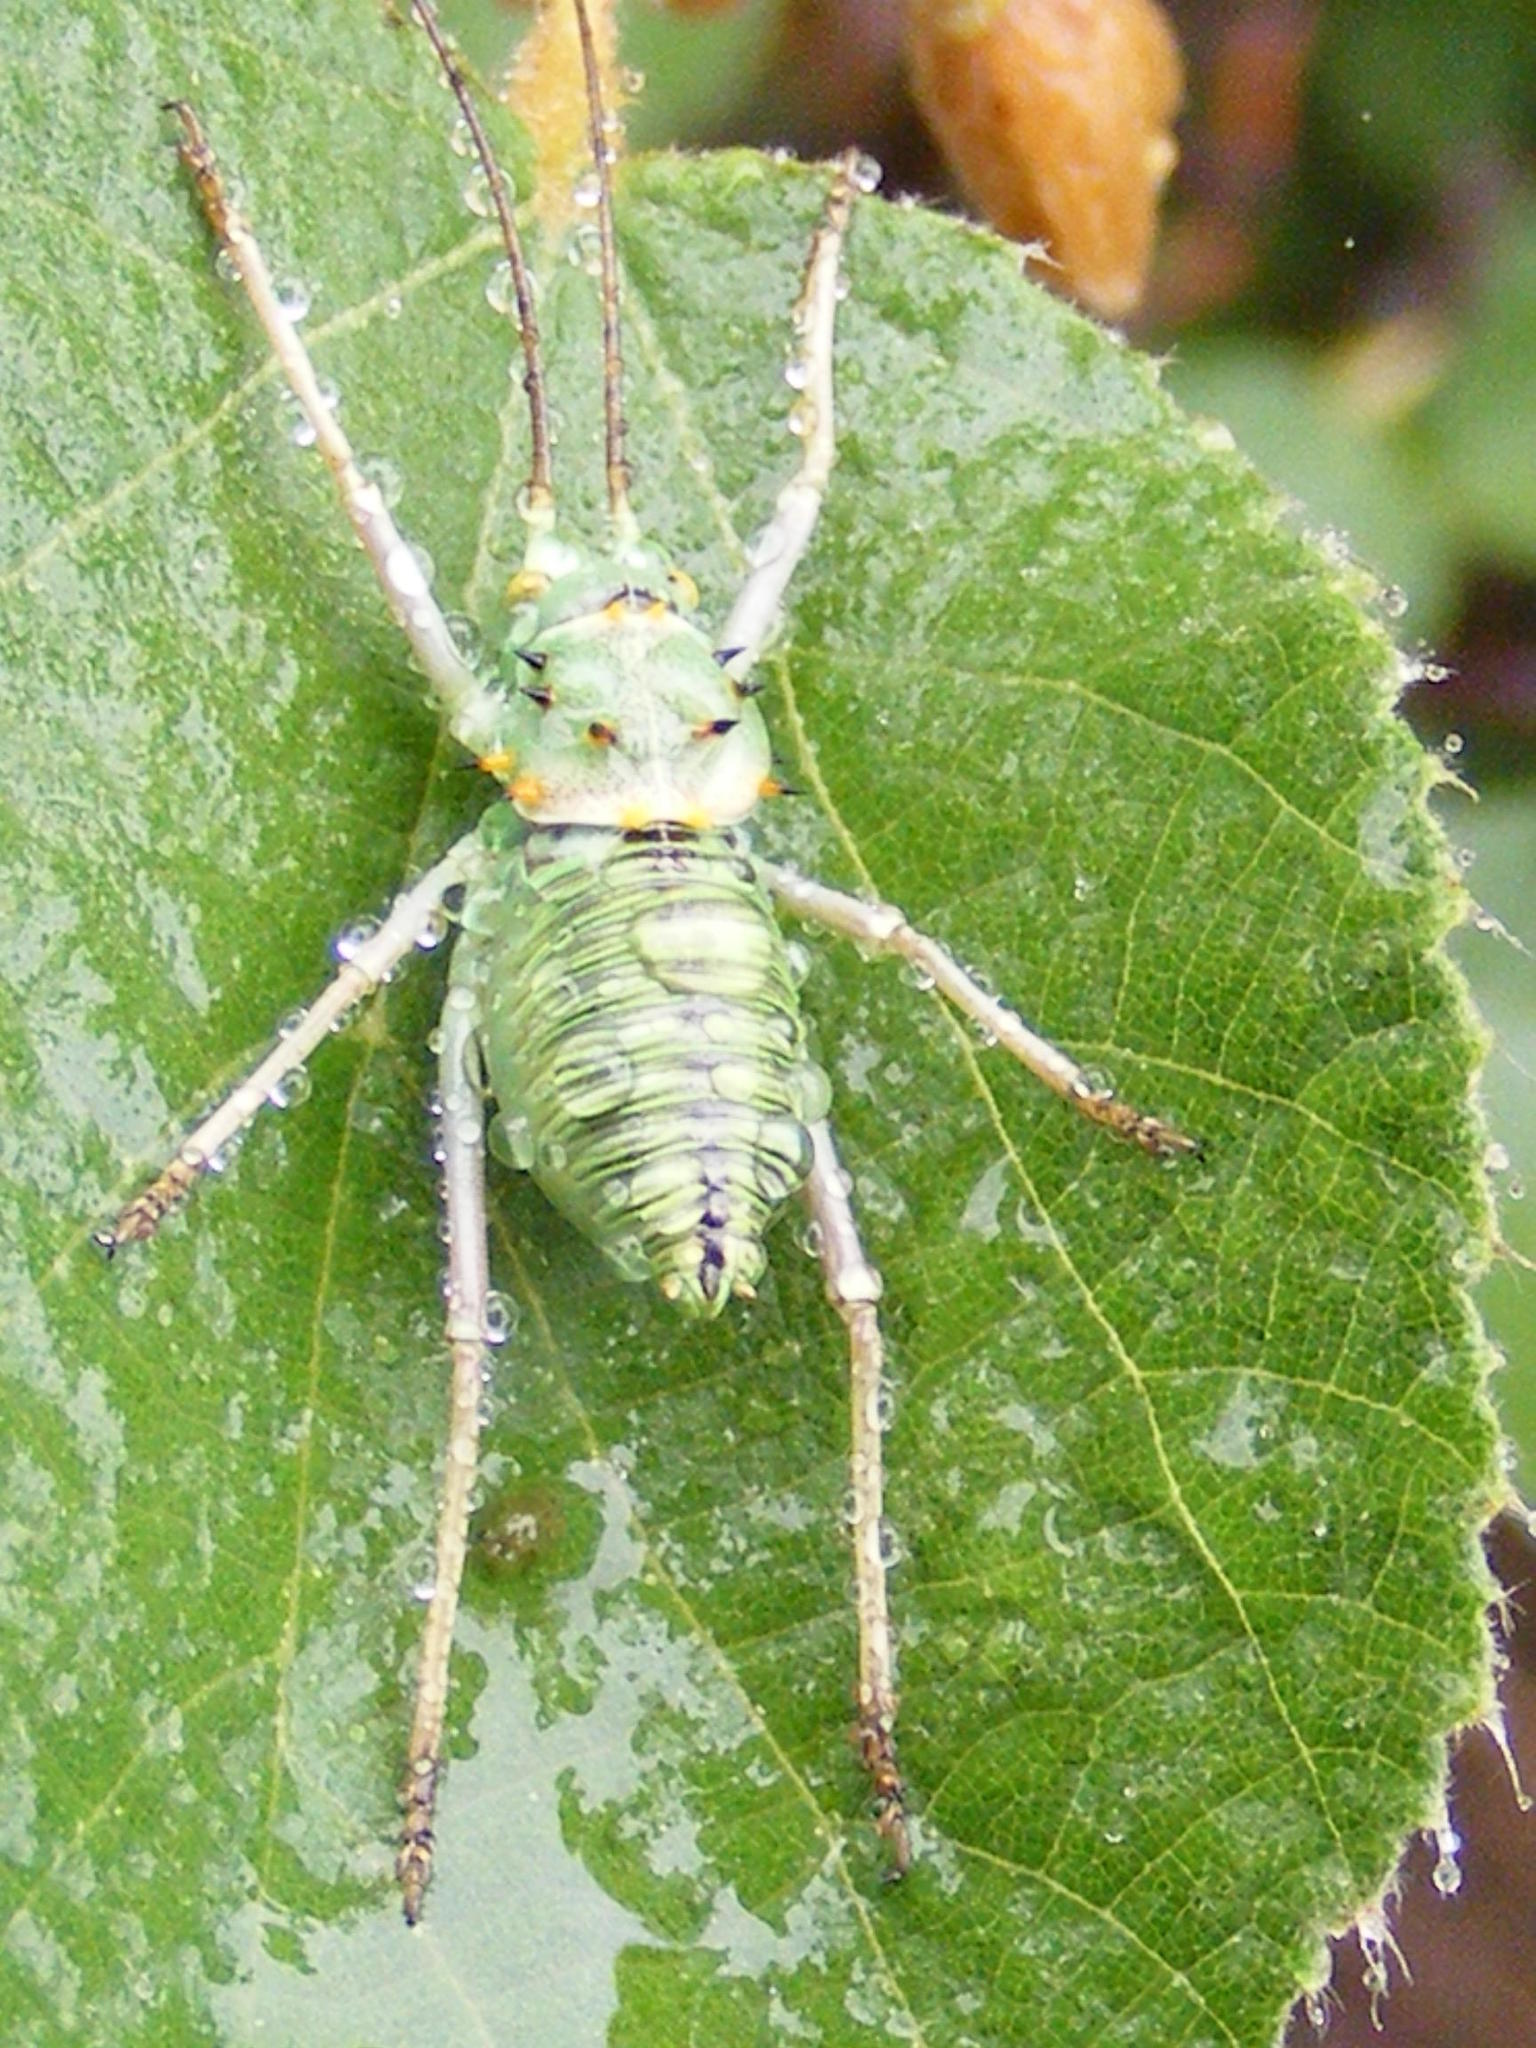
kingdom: Animalia
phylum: Arthropoda
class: Insecta
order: Orthoptera
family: Tettigoniidae
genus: Acanthoplus
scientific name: Acanthoplus discoidalis
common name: Armoured katydid
